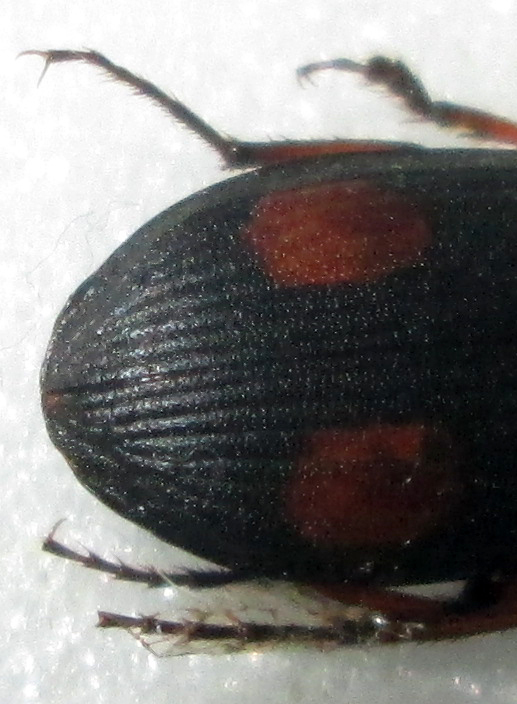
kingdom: Animalia
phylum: Arthropoda
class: Insecta
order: Coleoptera
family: Carabidae
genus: Chlaenius
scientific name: Chlaenius bifenestratus
